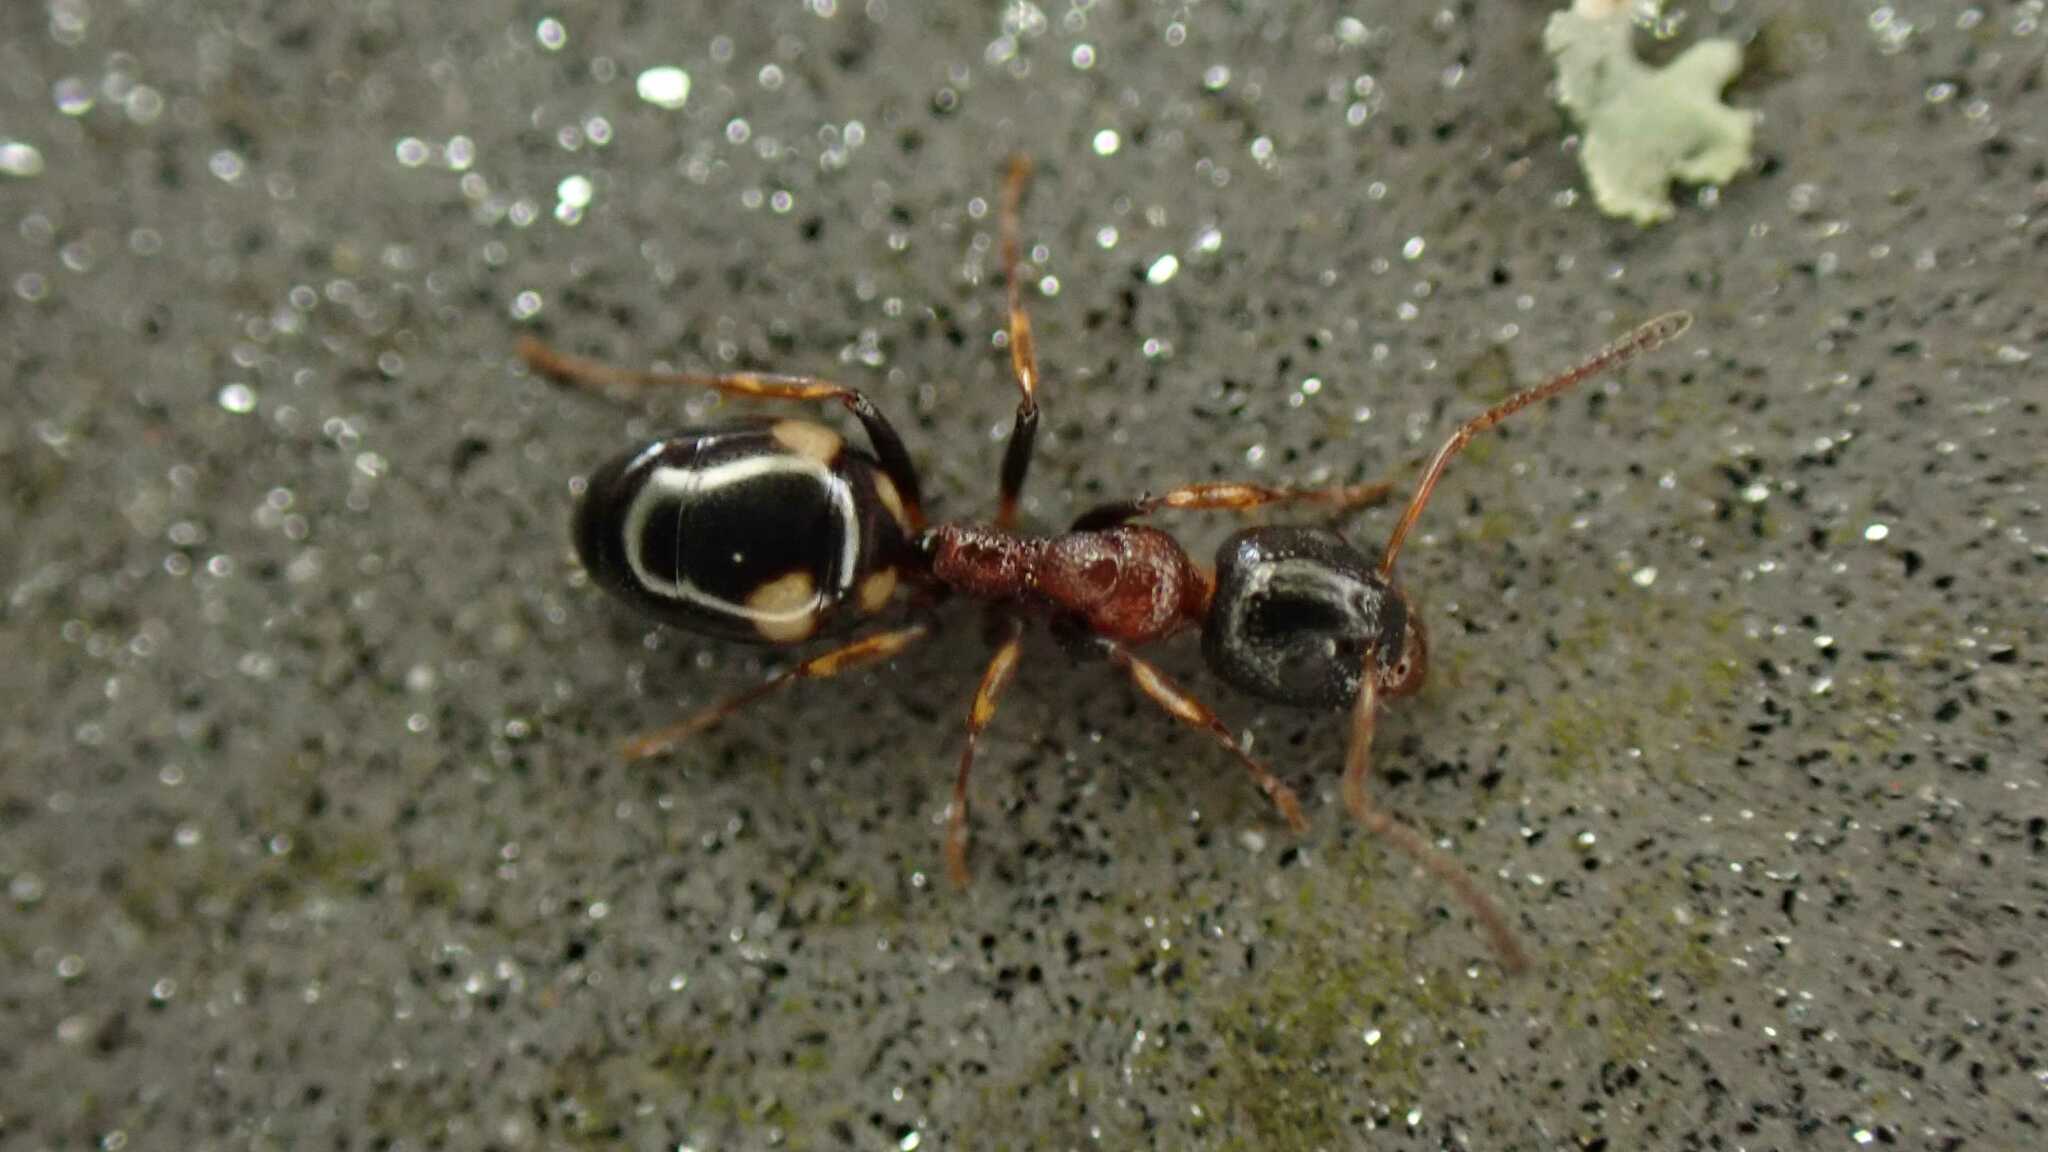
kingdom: Animalia
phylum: Arthropoda
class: Insecta
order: Hymenoptera
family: Formicidae
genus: Dolichoderus
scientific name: Dolichoderus quadripunctatus
